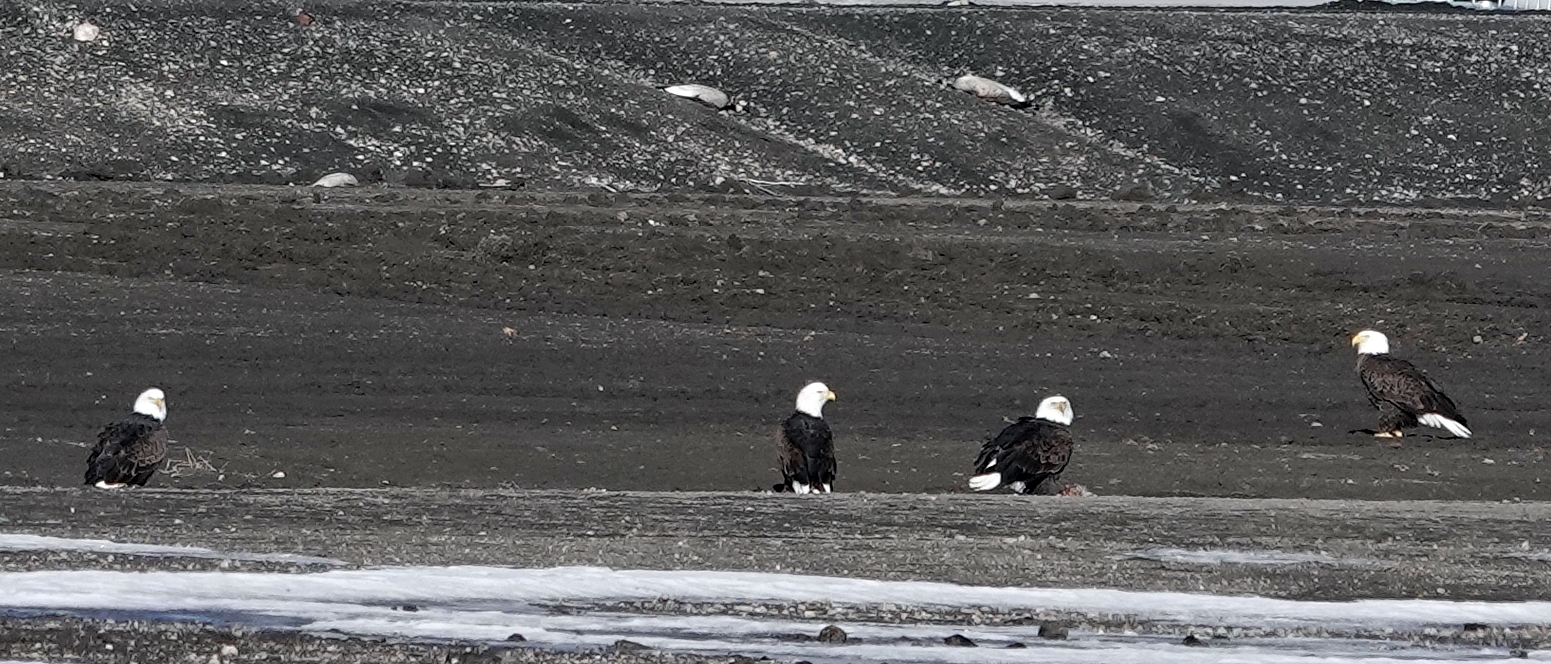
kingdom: Animalia
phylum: Chordata
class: Aves
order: Accipitriformes
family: Accipitridae
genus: Haliaeetus
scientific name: Haliaeetus leucocephalus
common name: Bald eagle
